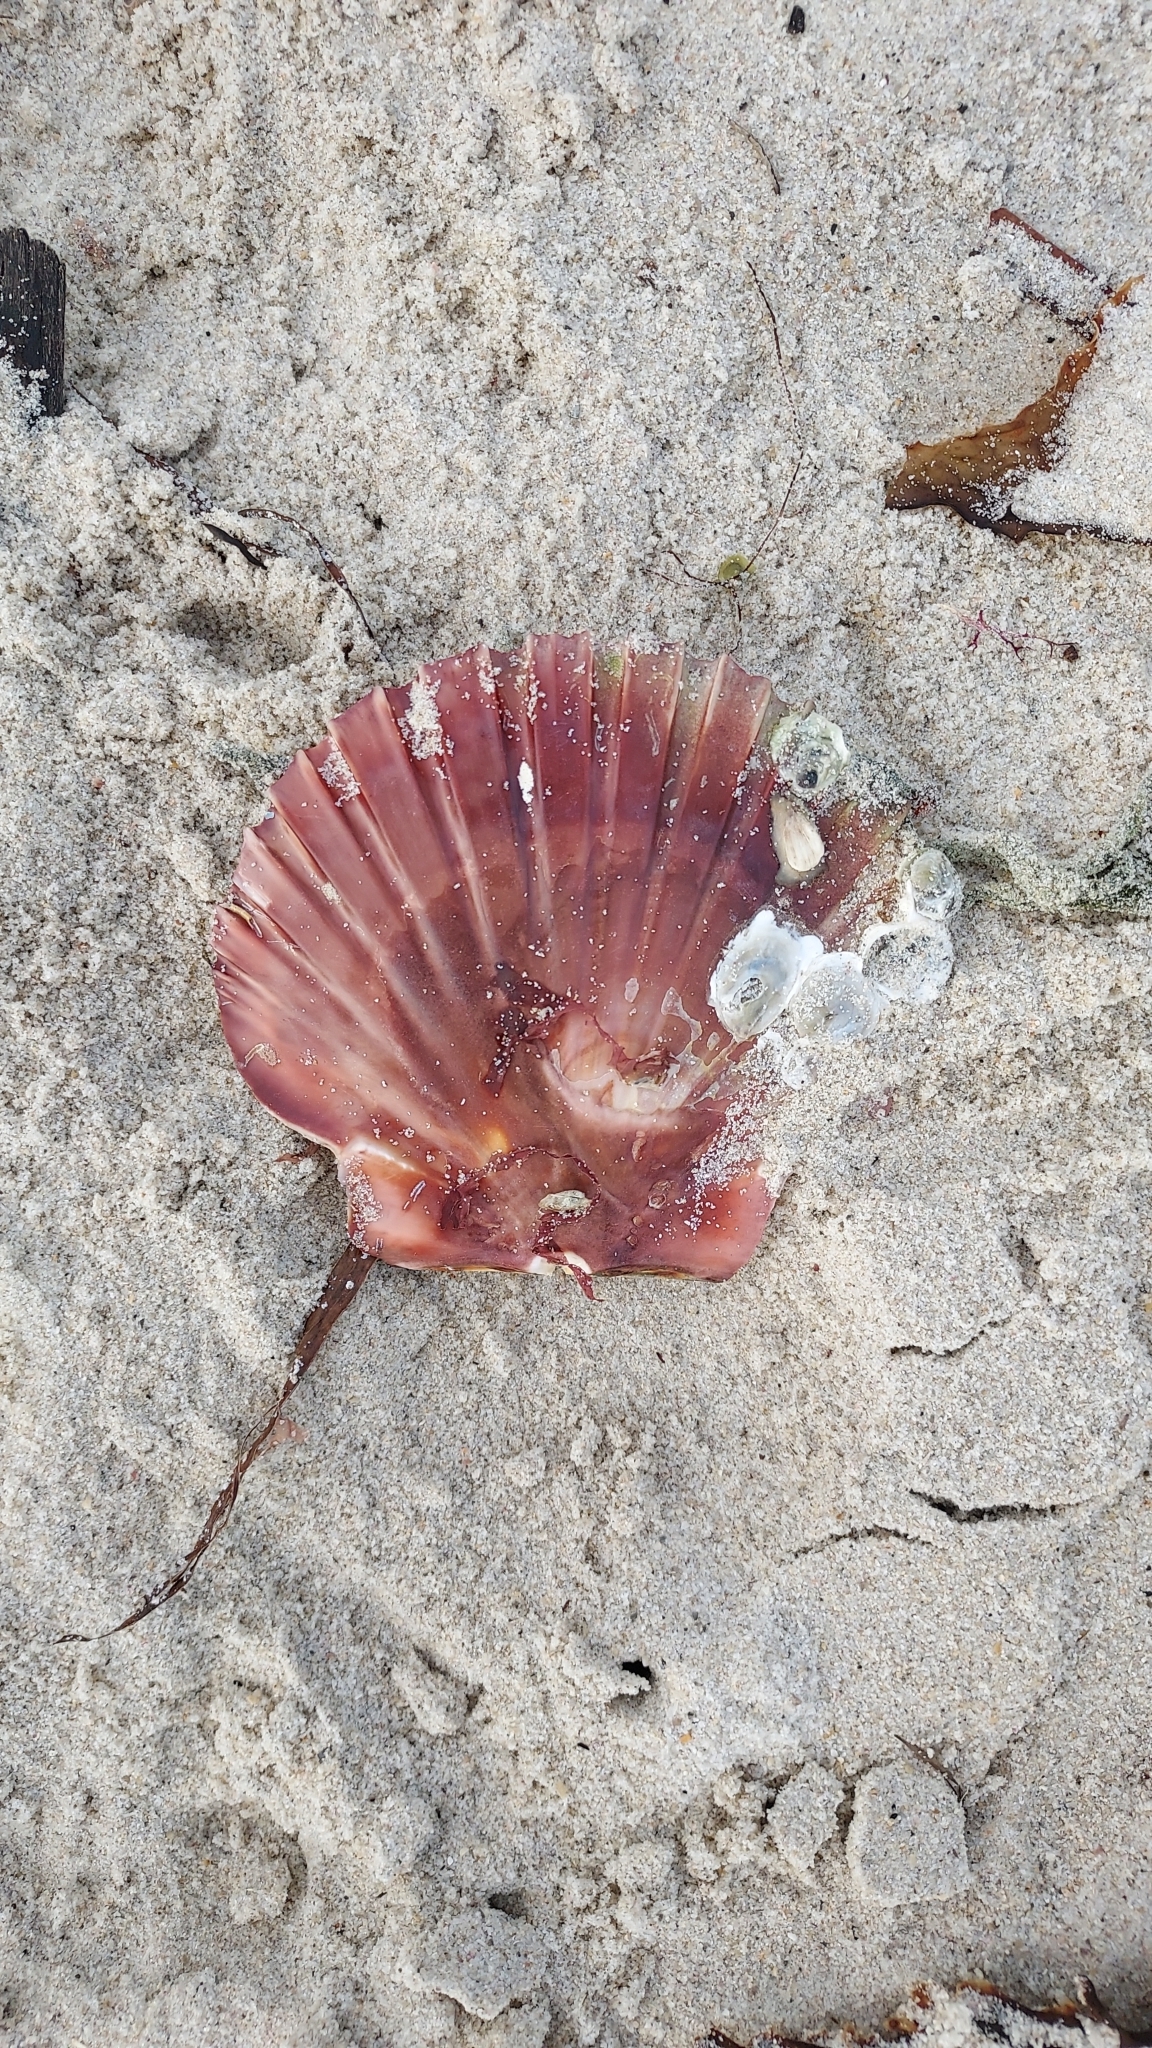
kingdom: Animalia
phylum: Mollusca
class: Bivalvia
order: Pectinida
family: Pectinidae
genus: Pecten
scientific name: Pecten fumatus
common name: Australian scallop
